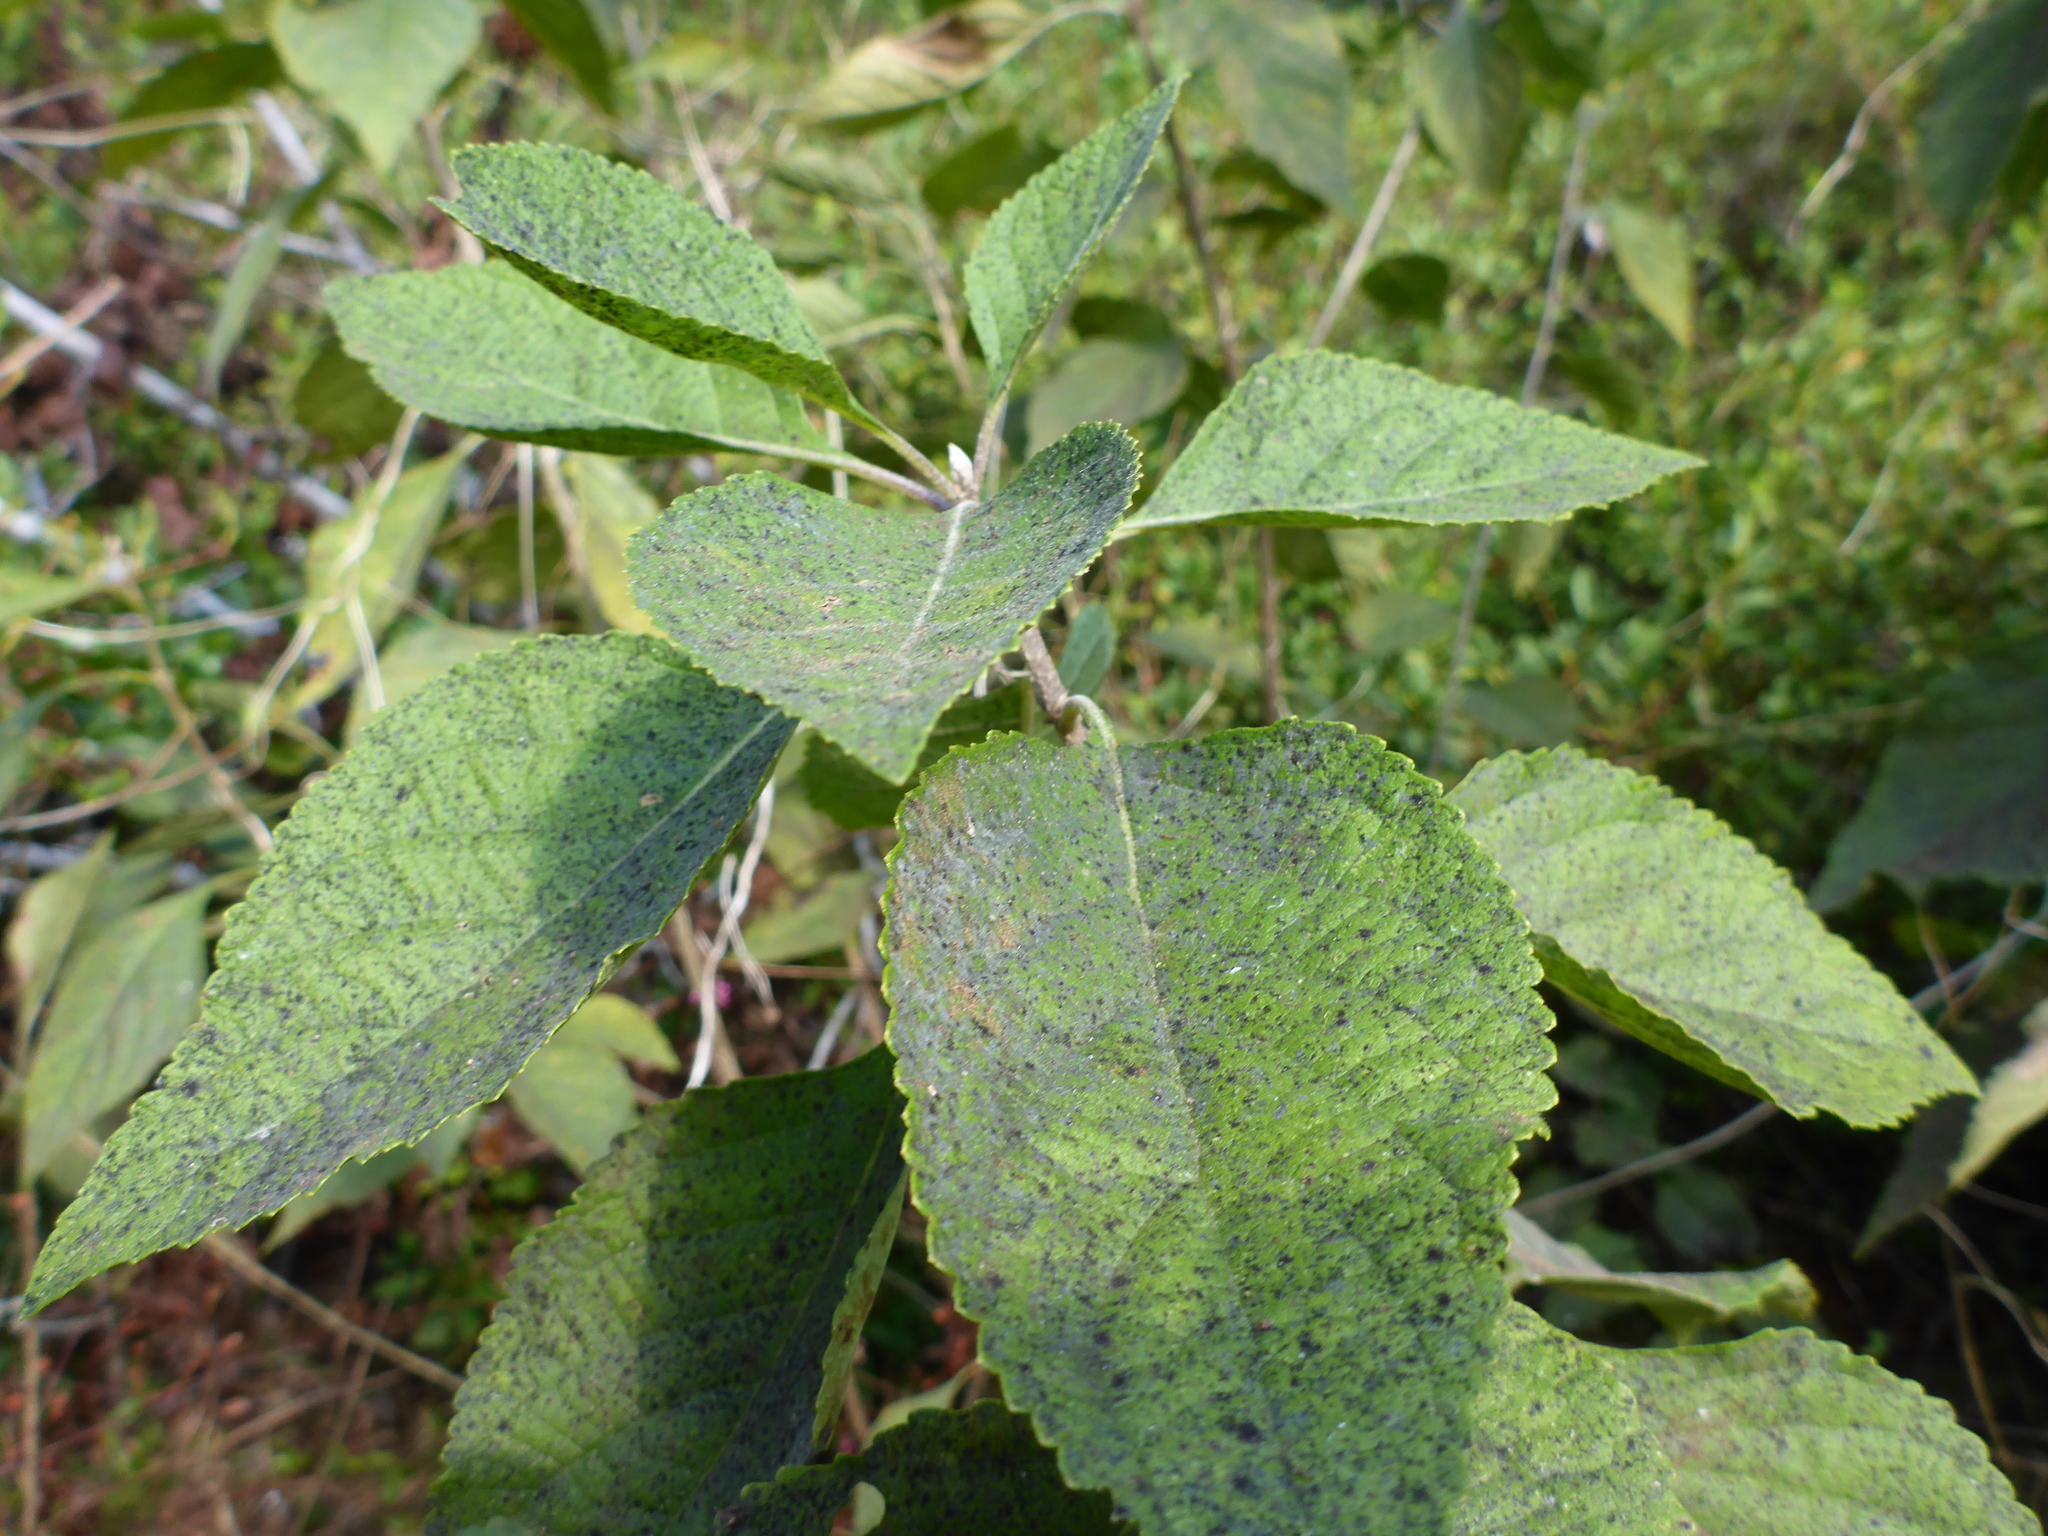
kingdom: Plantae
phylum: Tracheophyta
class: Magnoliopsida
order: Lamiales
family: Lamiaceae
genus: Callicarpa
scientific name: Callicarpa americana
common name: American beautyberry
